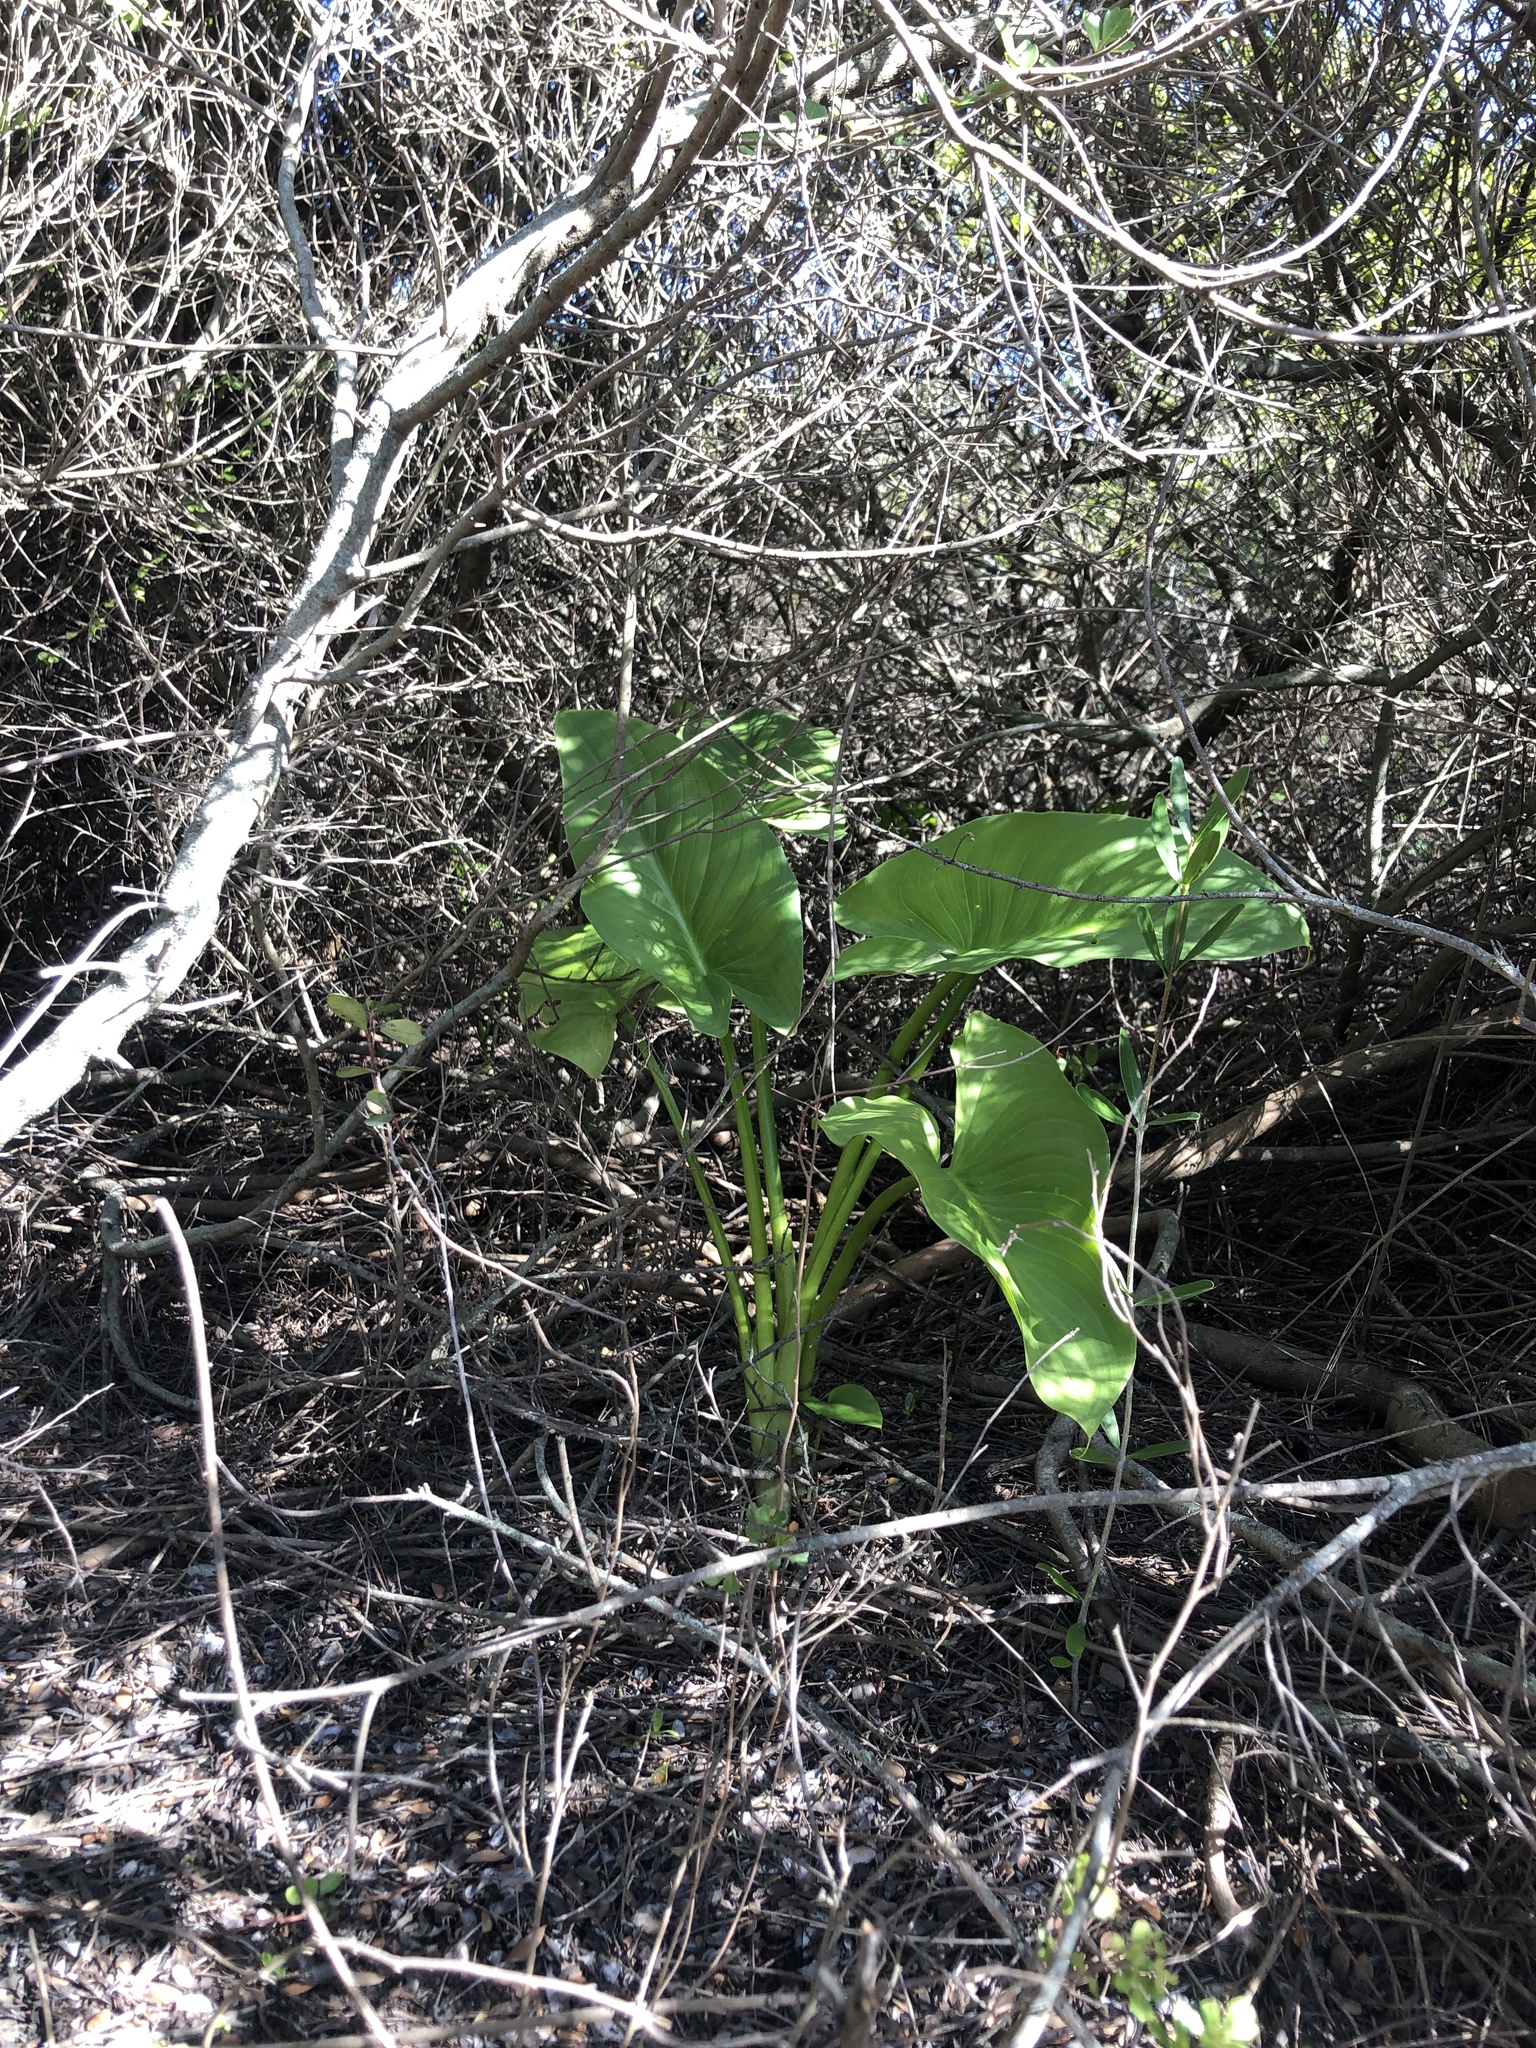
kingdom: Plantae
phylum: Tracheophyta
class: Liliopsida
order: Alismatales
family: Araceae
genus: Zantedeschia
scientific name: Zantedeschia aethiopica
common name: Altar-lily
